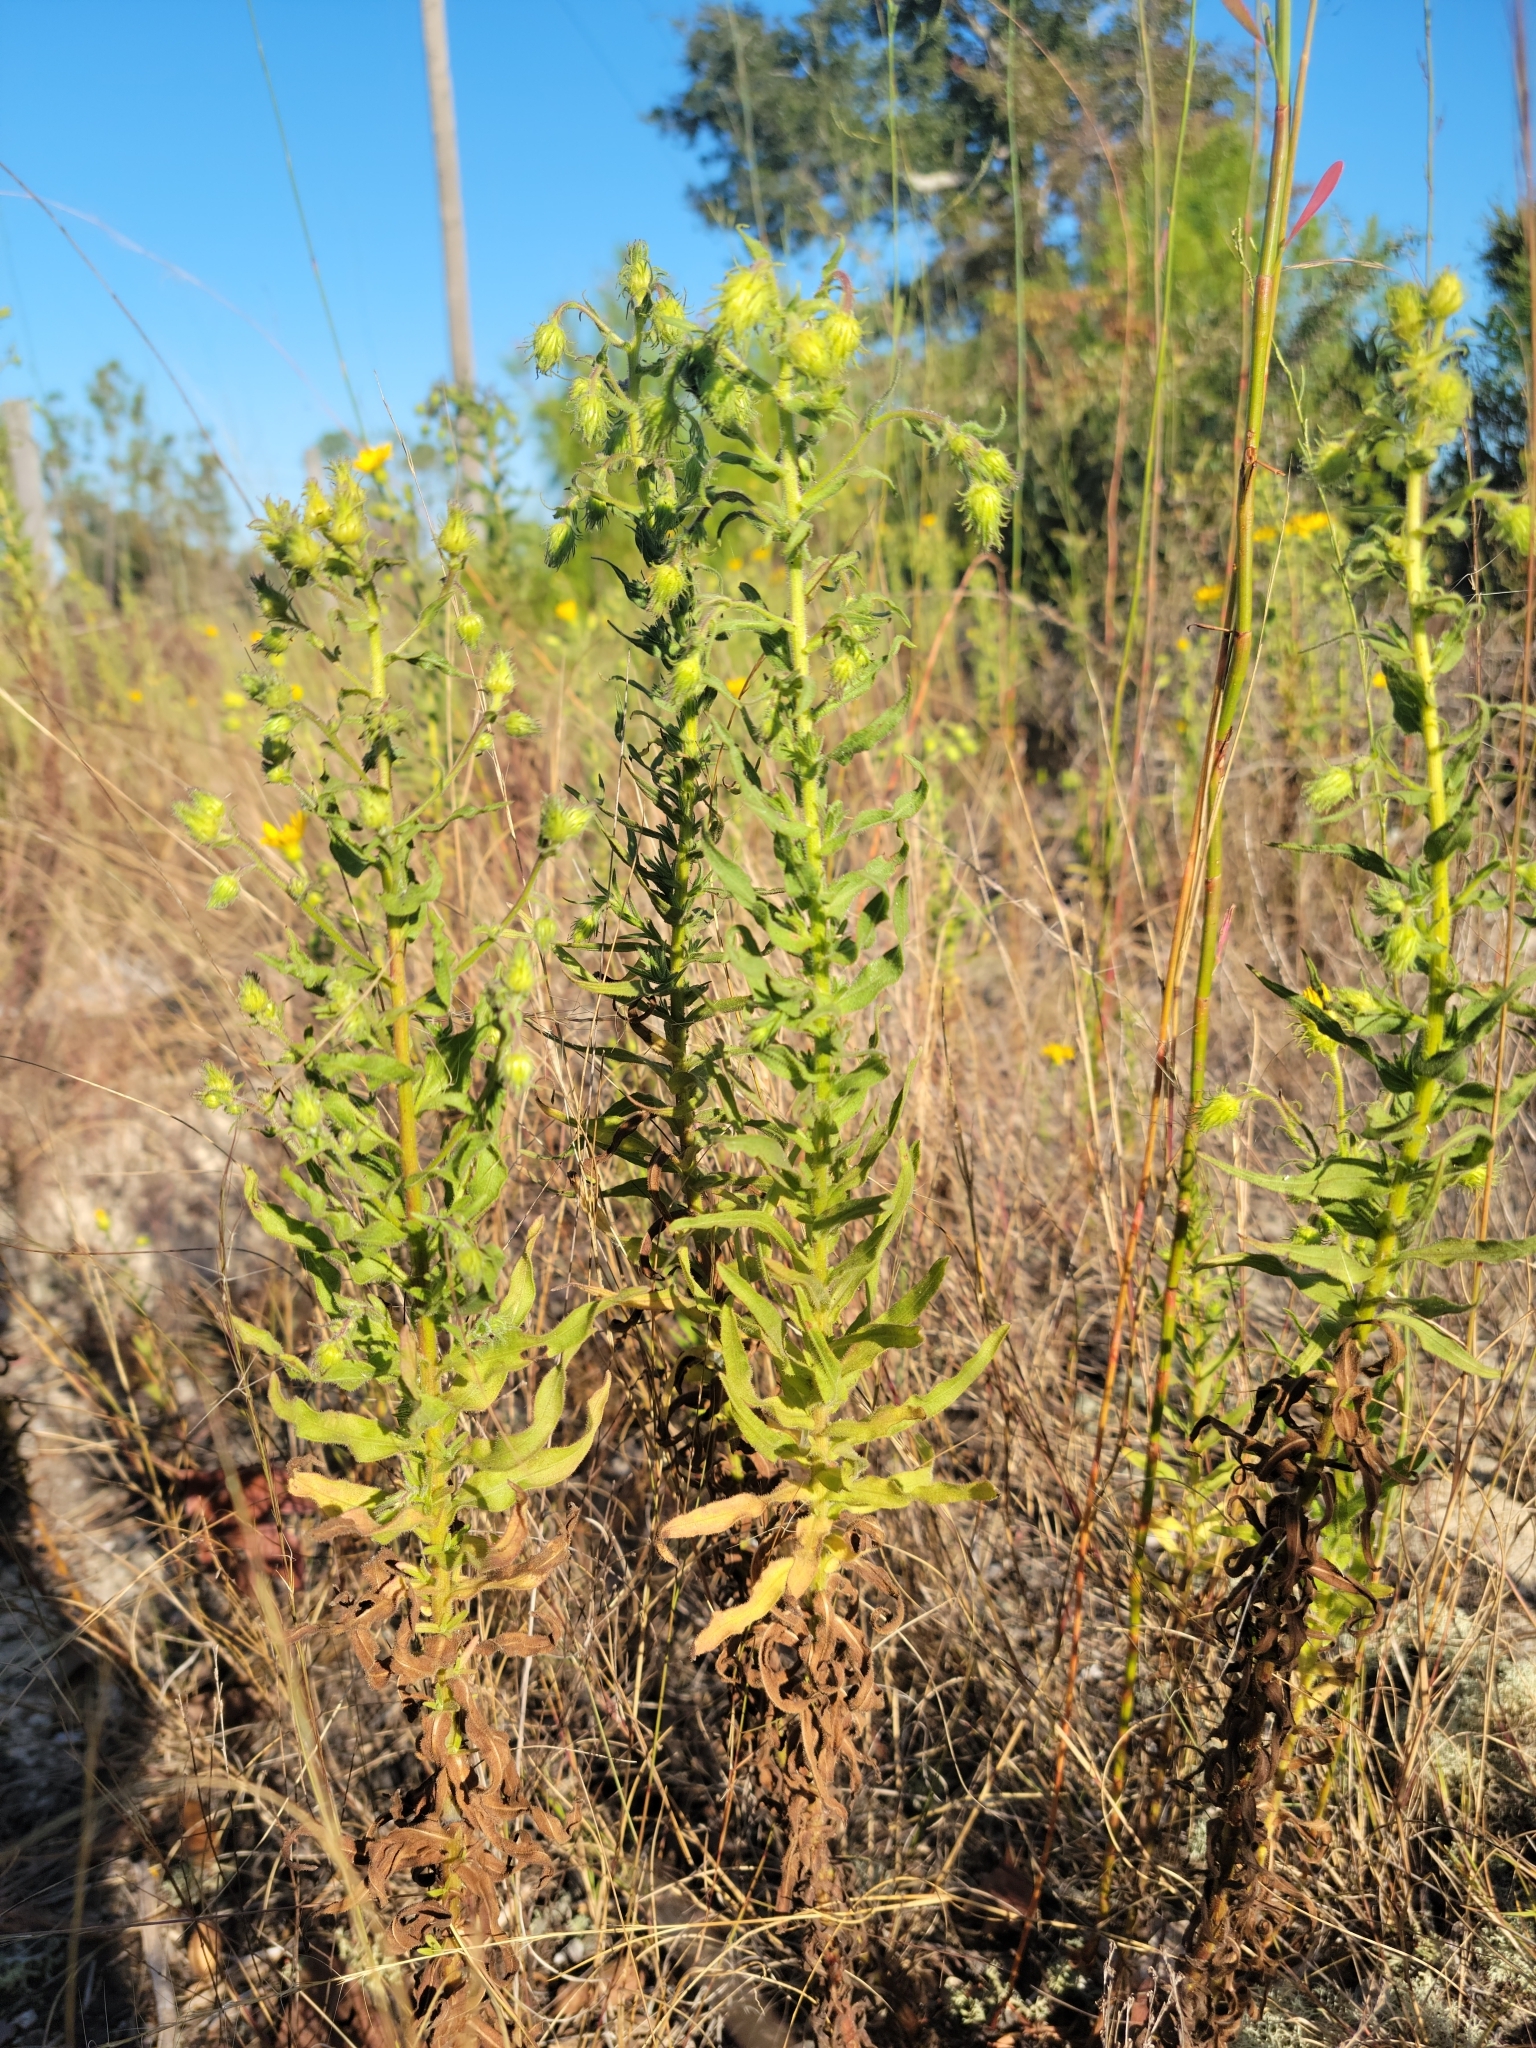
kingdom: Plantae
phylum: Tracheophyta
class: Magnoliopsida
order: Asterales
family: Asteraceae
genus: Chrysopsis
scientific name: Chrysopsis lanuginosa
